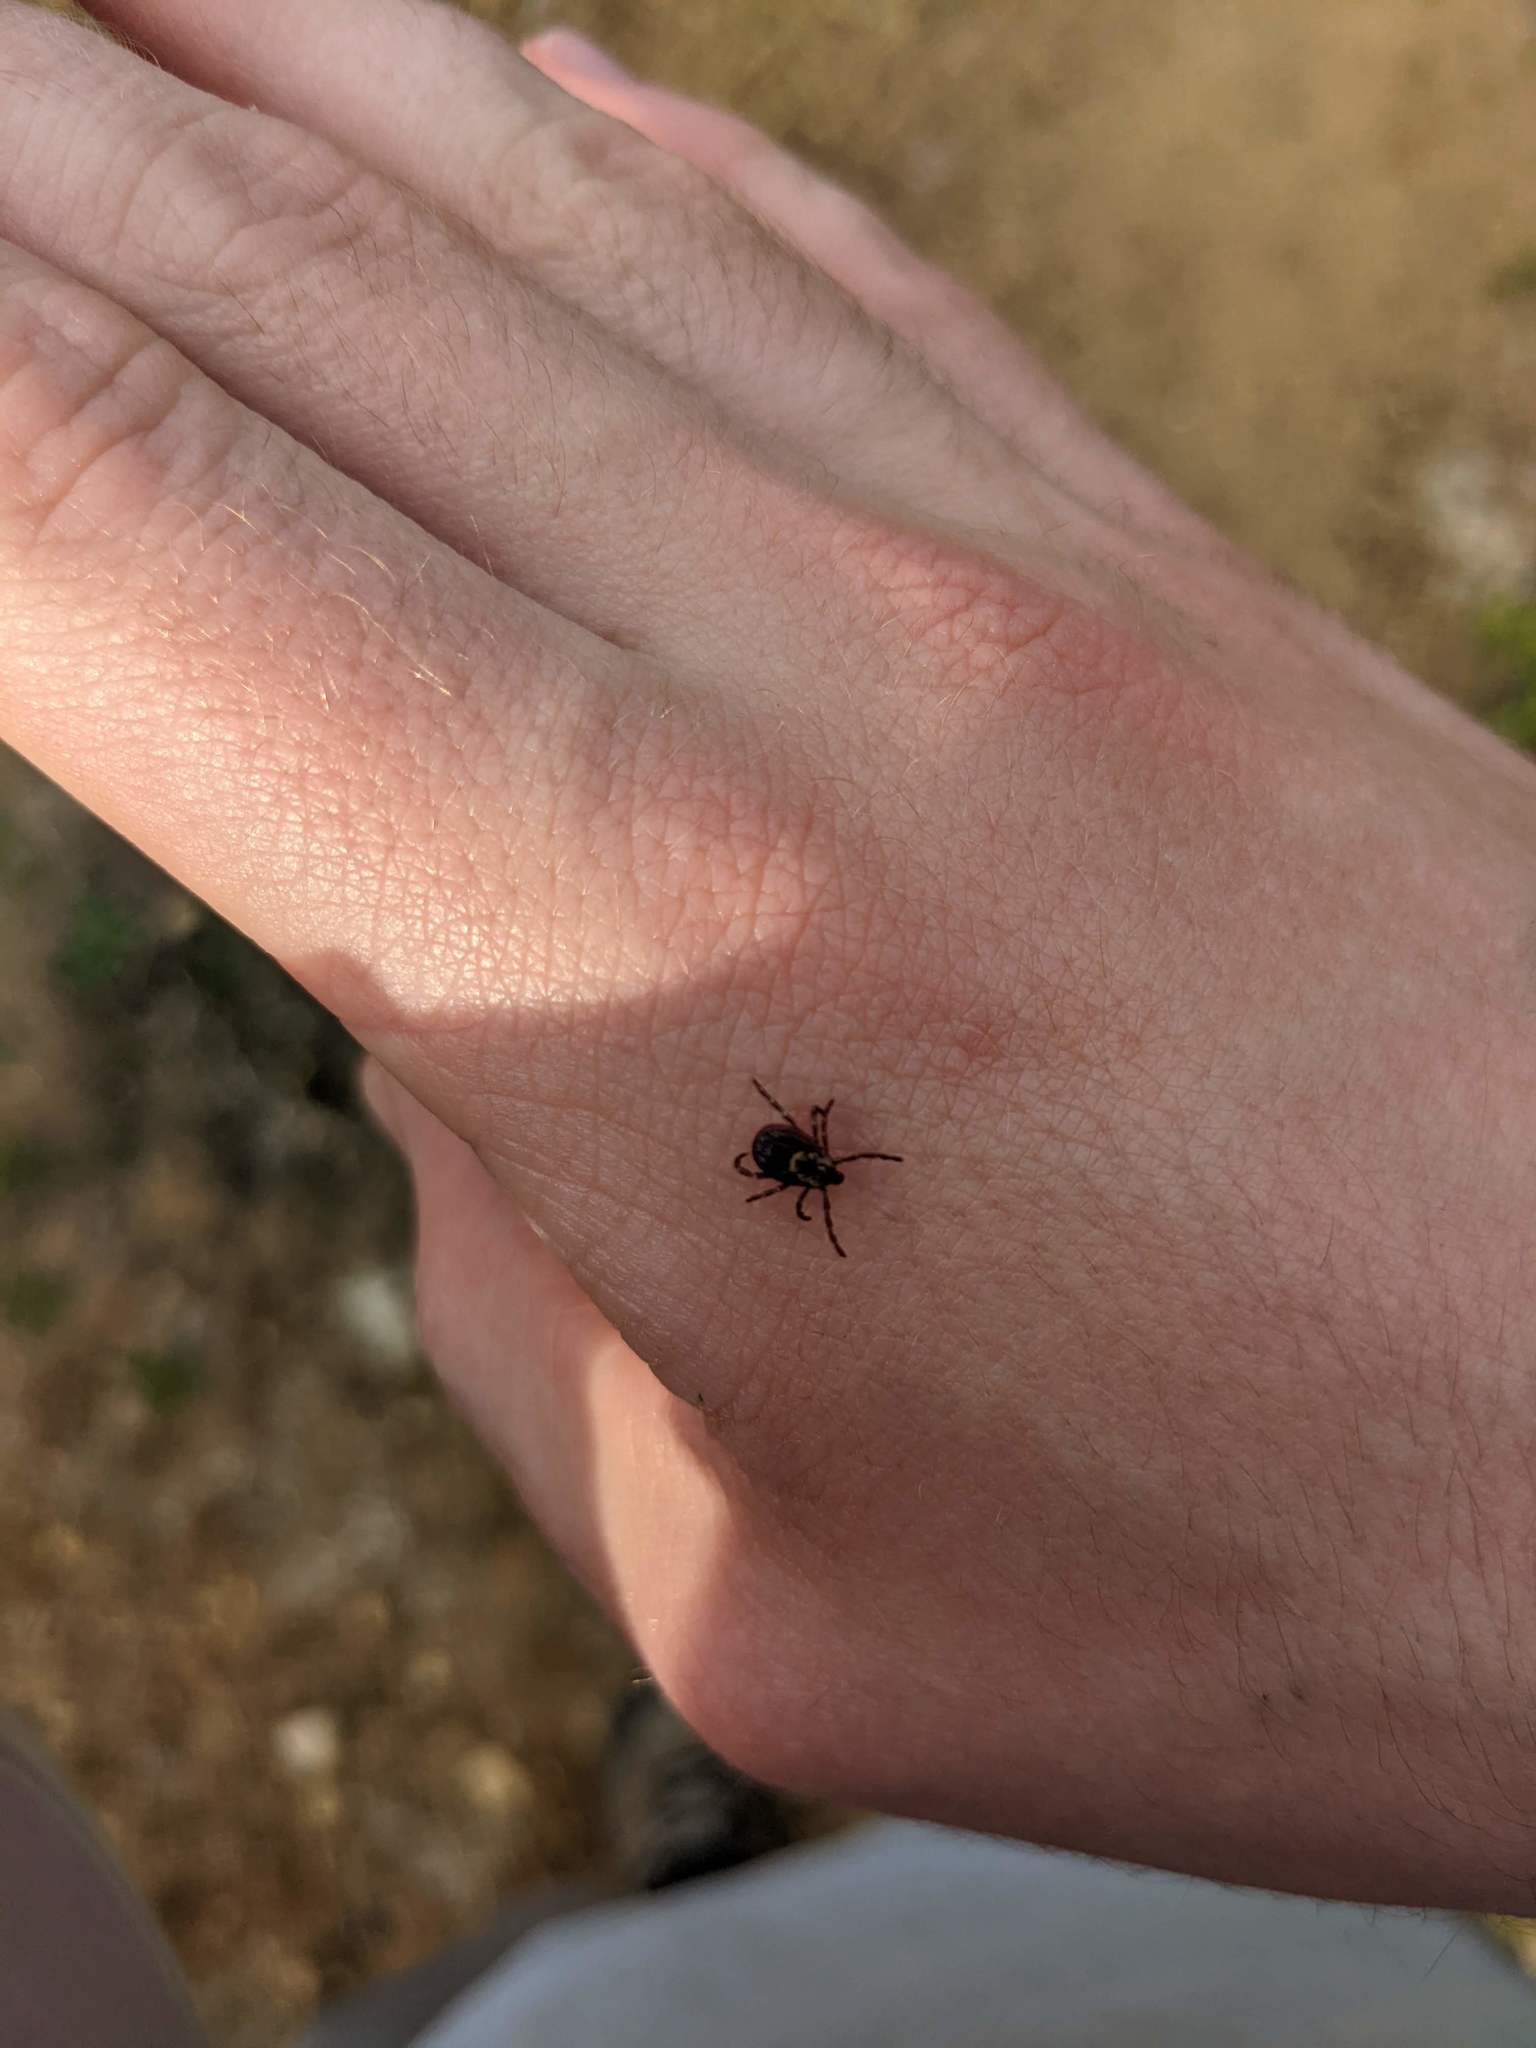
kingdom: Animalia
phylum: Arthropoda
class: Arachnida
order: Ixodida
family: Ixodidae
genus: Dermacentor
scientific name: Dermacentor variabilis
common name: American dog tick
